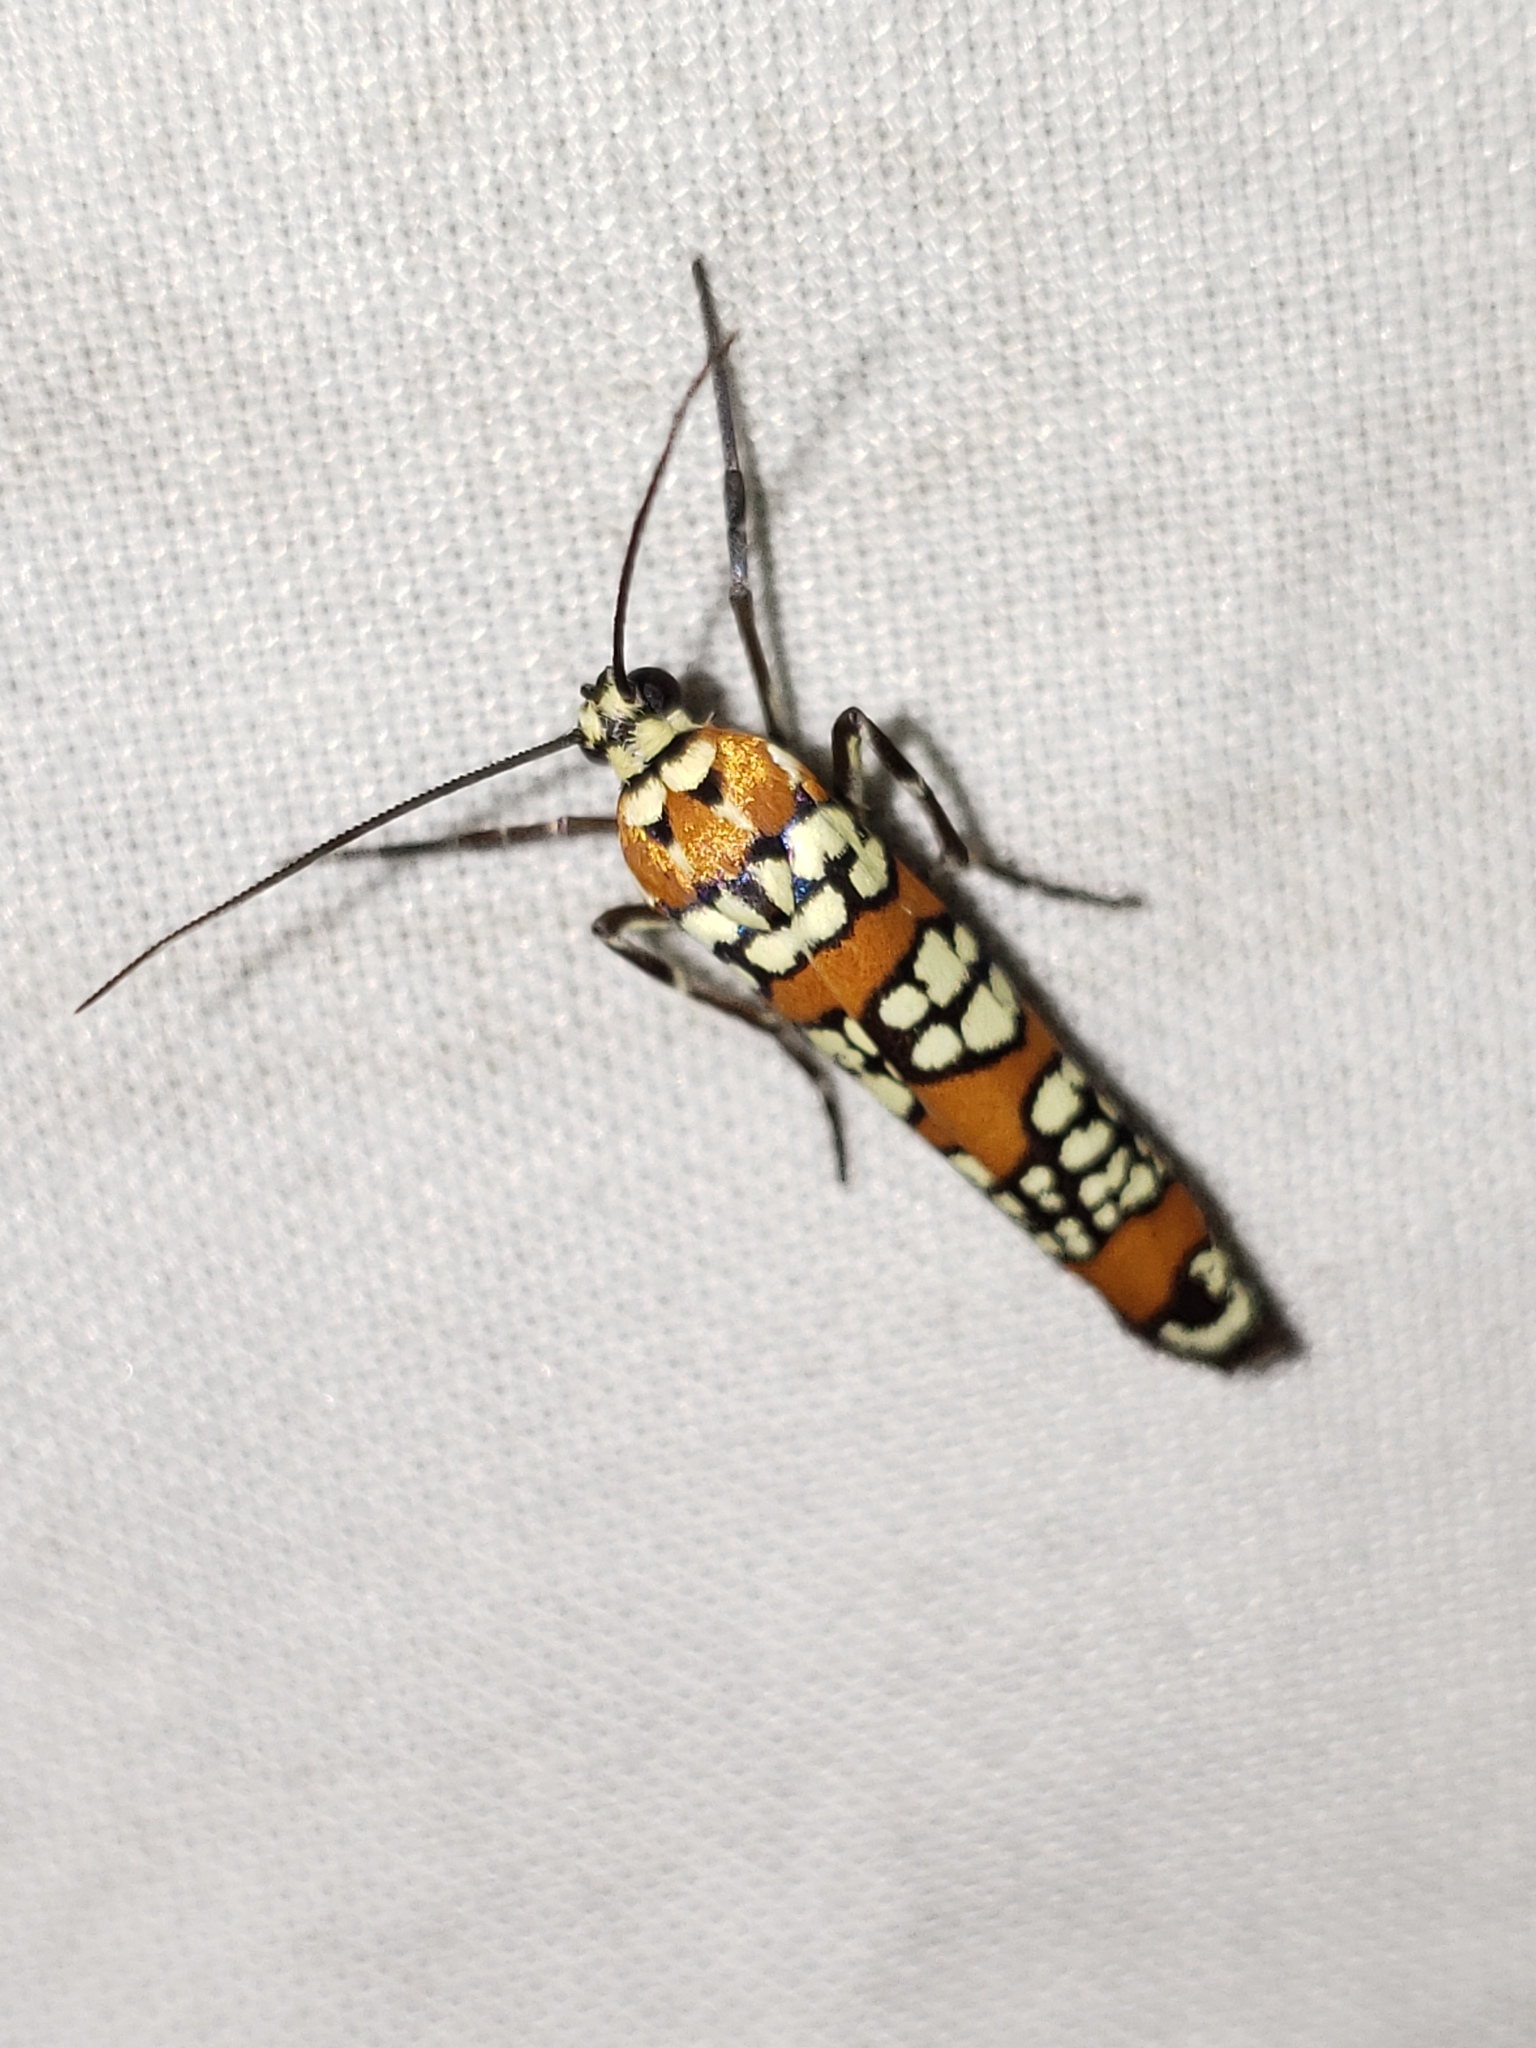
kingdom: Animalia
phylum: Arthropoda
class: Insecta
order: Lepidoptera
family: Attevidae
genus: Atteva
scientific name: Atteva punctella
